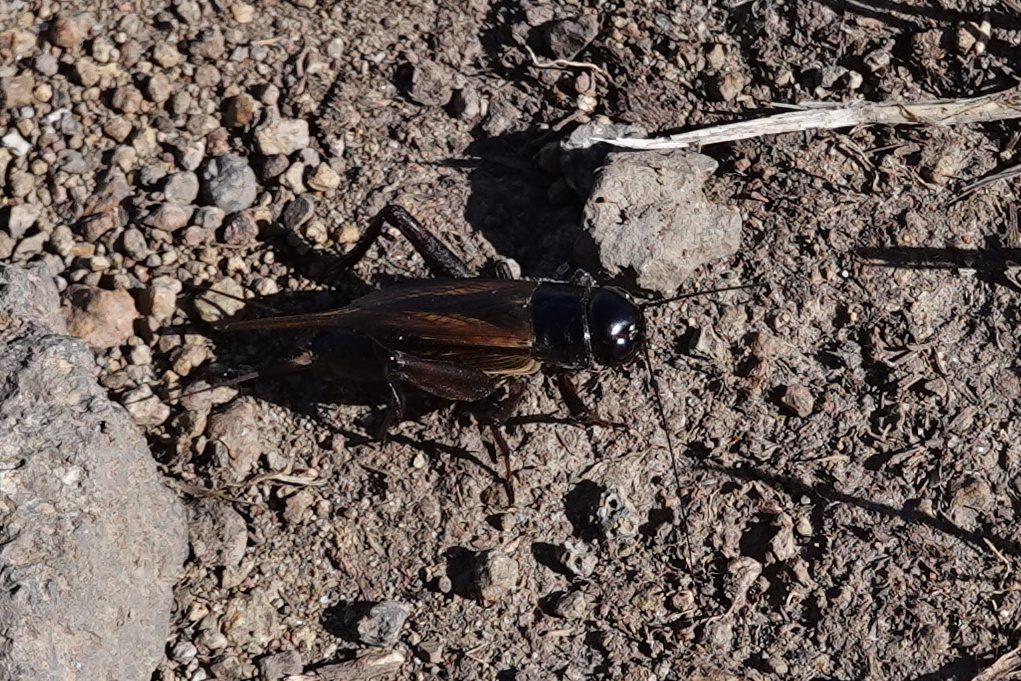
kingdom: Animalia
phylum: Arthropoda
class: Insecta
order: Orthoptera
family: Gryllidae
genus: Teleogryllus
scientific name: Teleogryllus commodus
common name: Black field cricket
